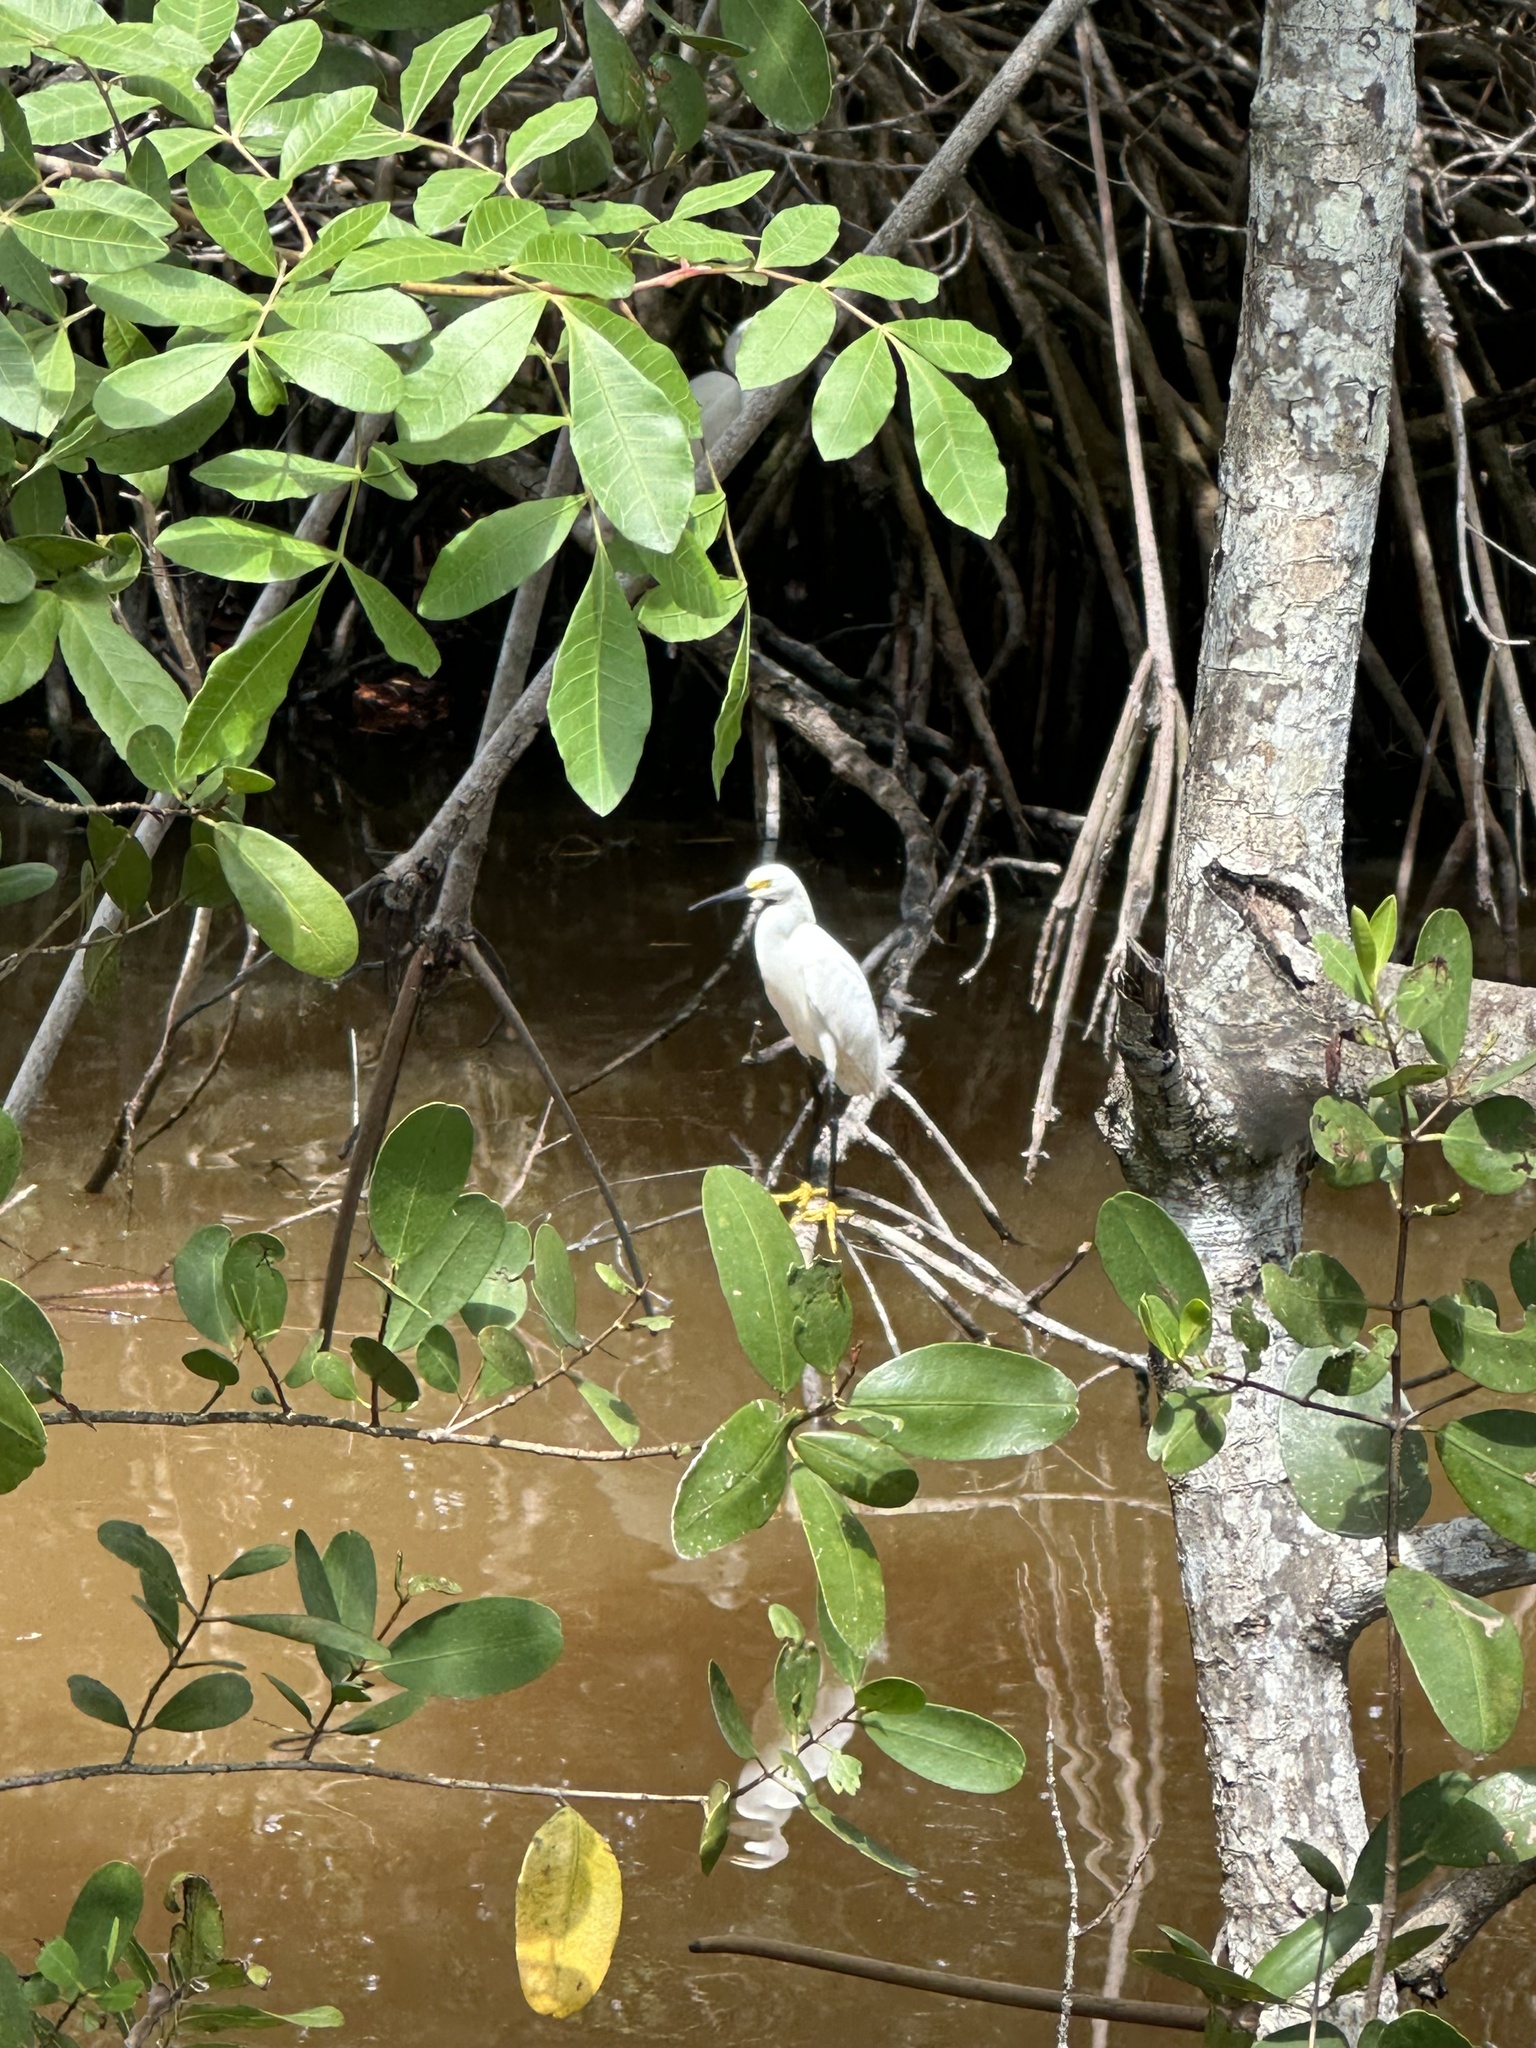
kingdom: Animalia
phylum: Chordata
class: Aves
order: Pelecaniformes
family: Ardeidae
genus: Egretta
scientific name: Egretta thula
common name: Snowy egret
